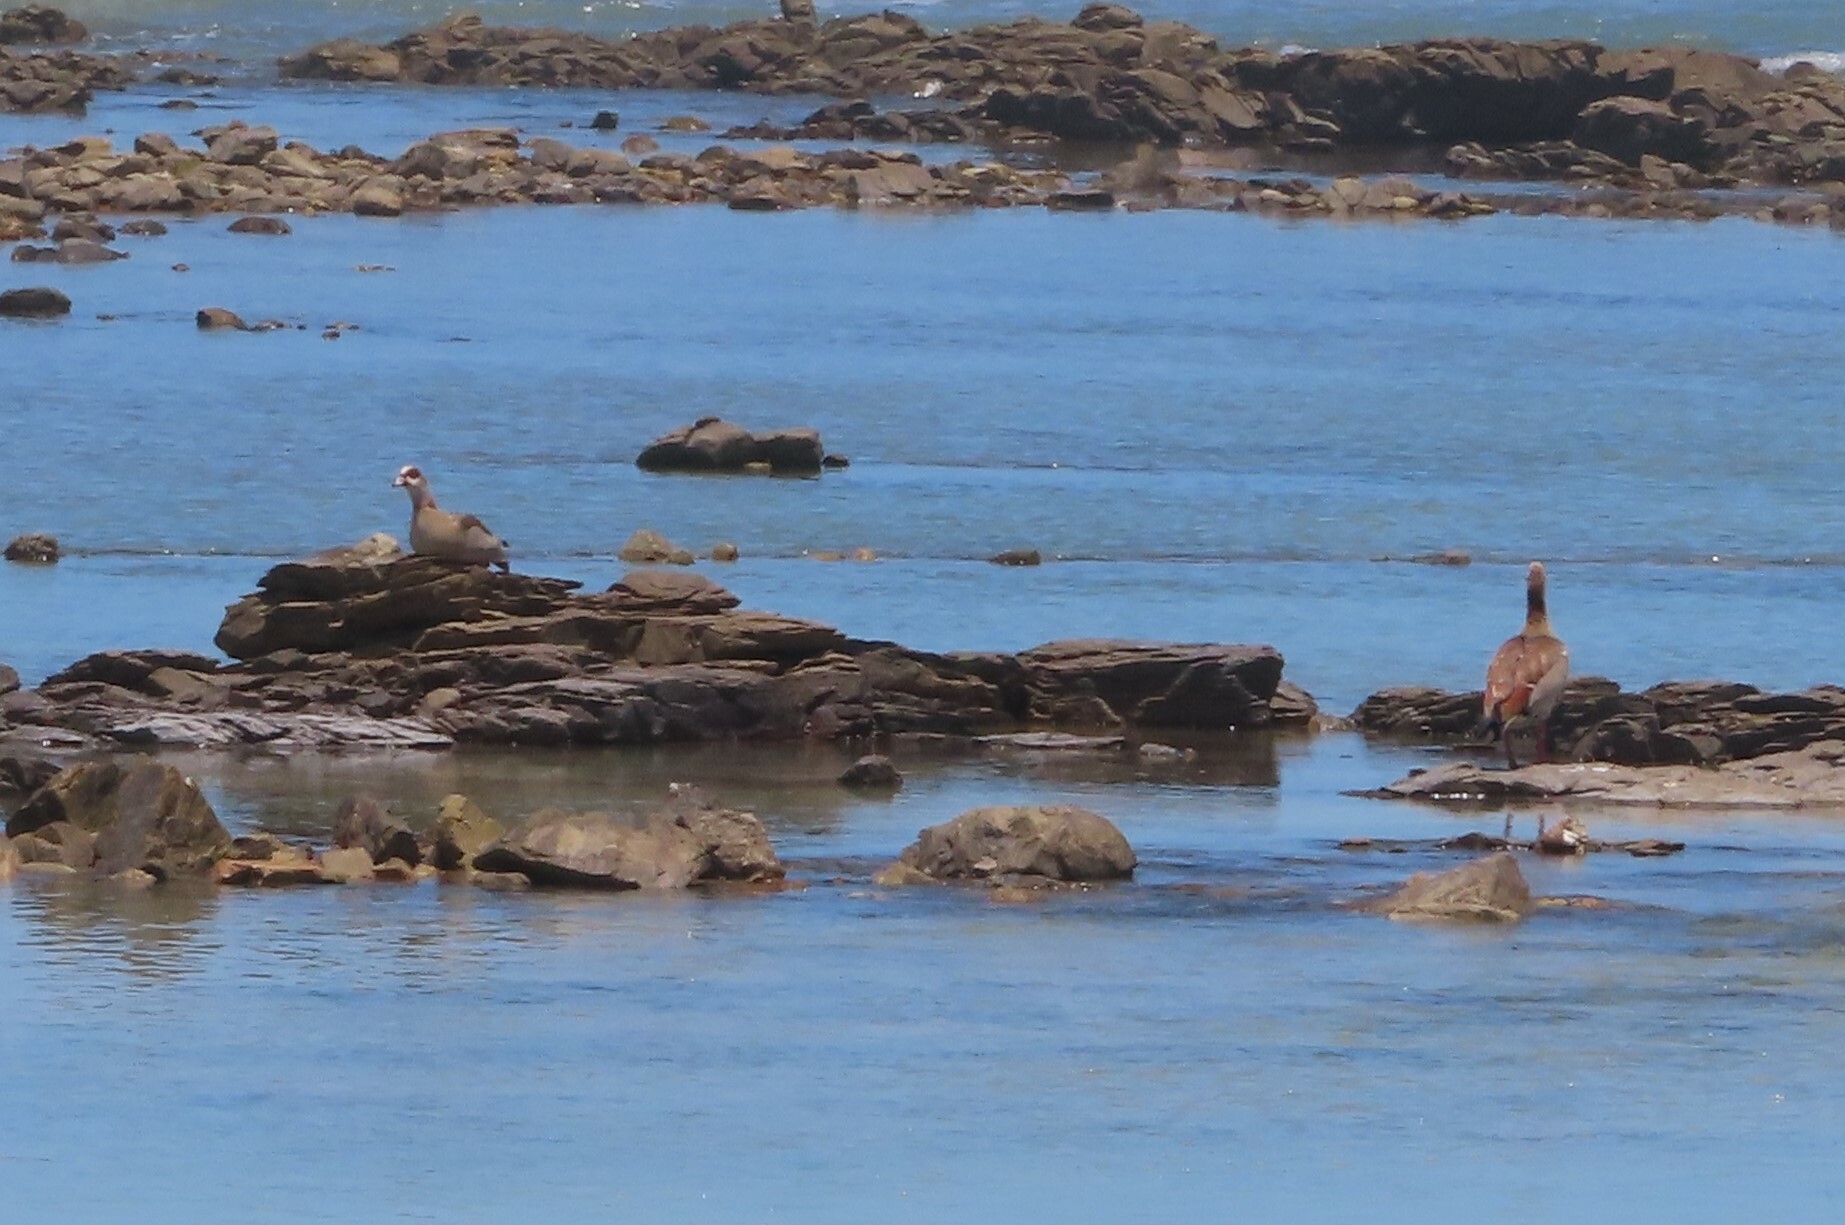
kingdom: Animalia
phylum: Chordata
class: Aves
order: Anseriformes
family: Anatidae
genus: Alopochen
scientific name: Alopochen aegyptiaca
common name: Egyptian goose
